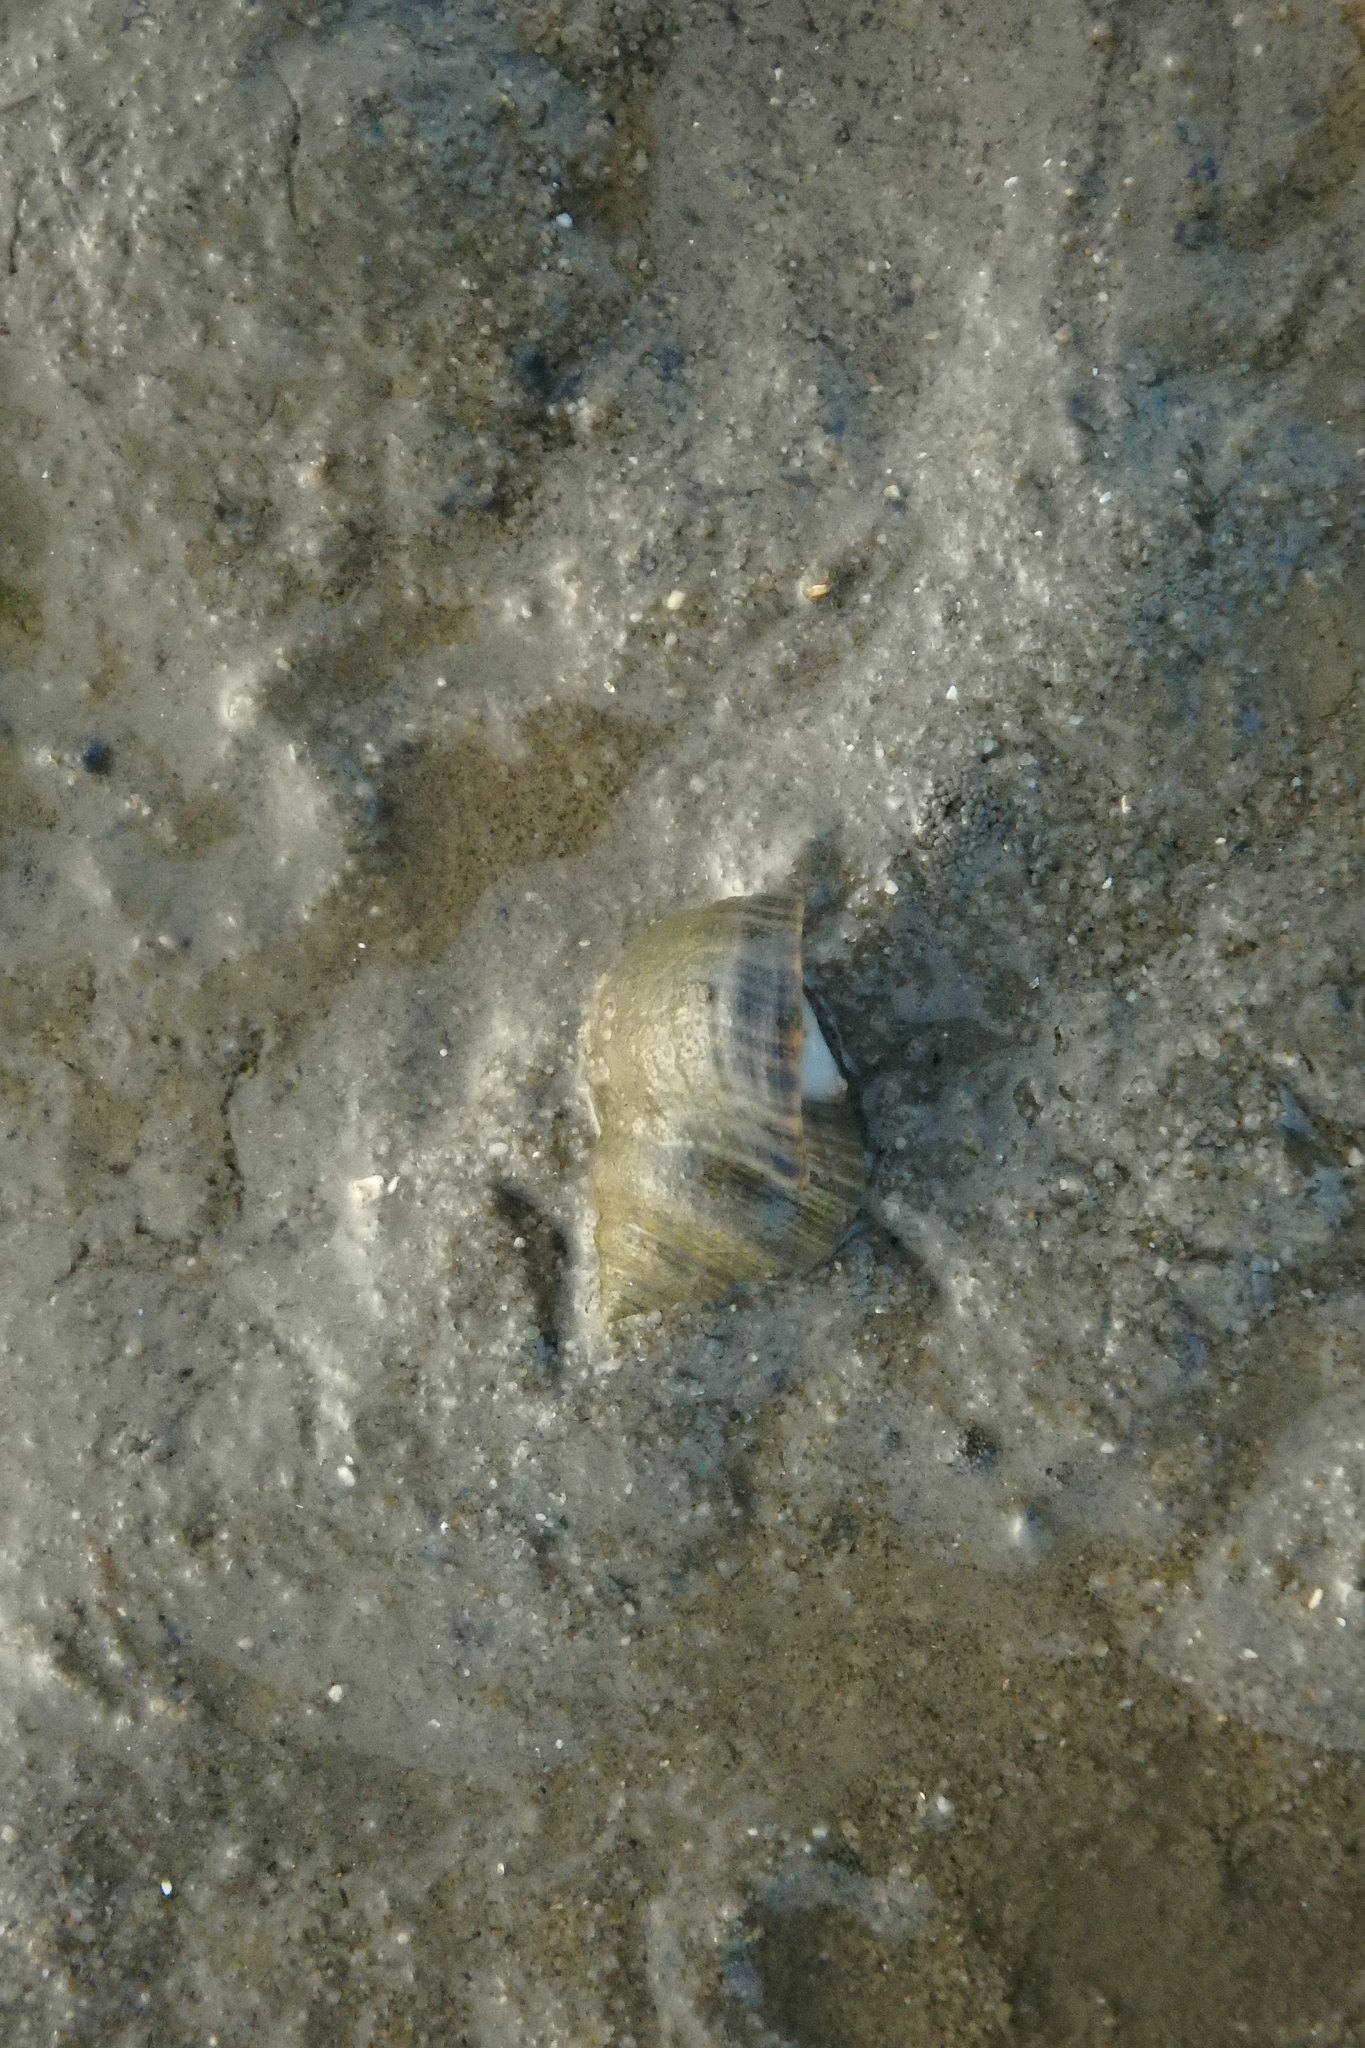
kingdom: Animalia
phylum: Mollusca
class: Gastropoda
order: Littorinimorpha
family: Littorinidae
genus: Littorina
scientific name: Littorina littorea
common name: Common periwinkle
